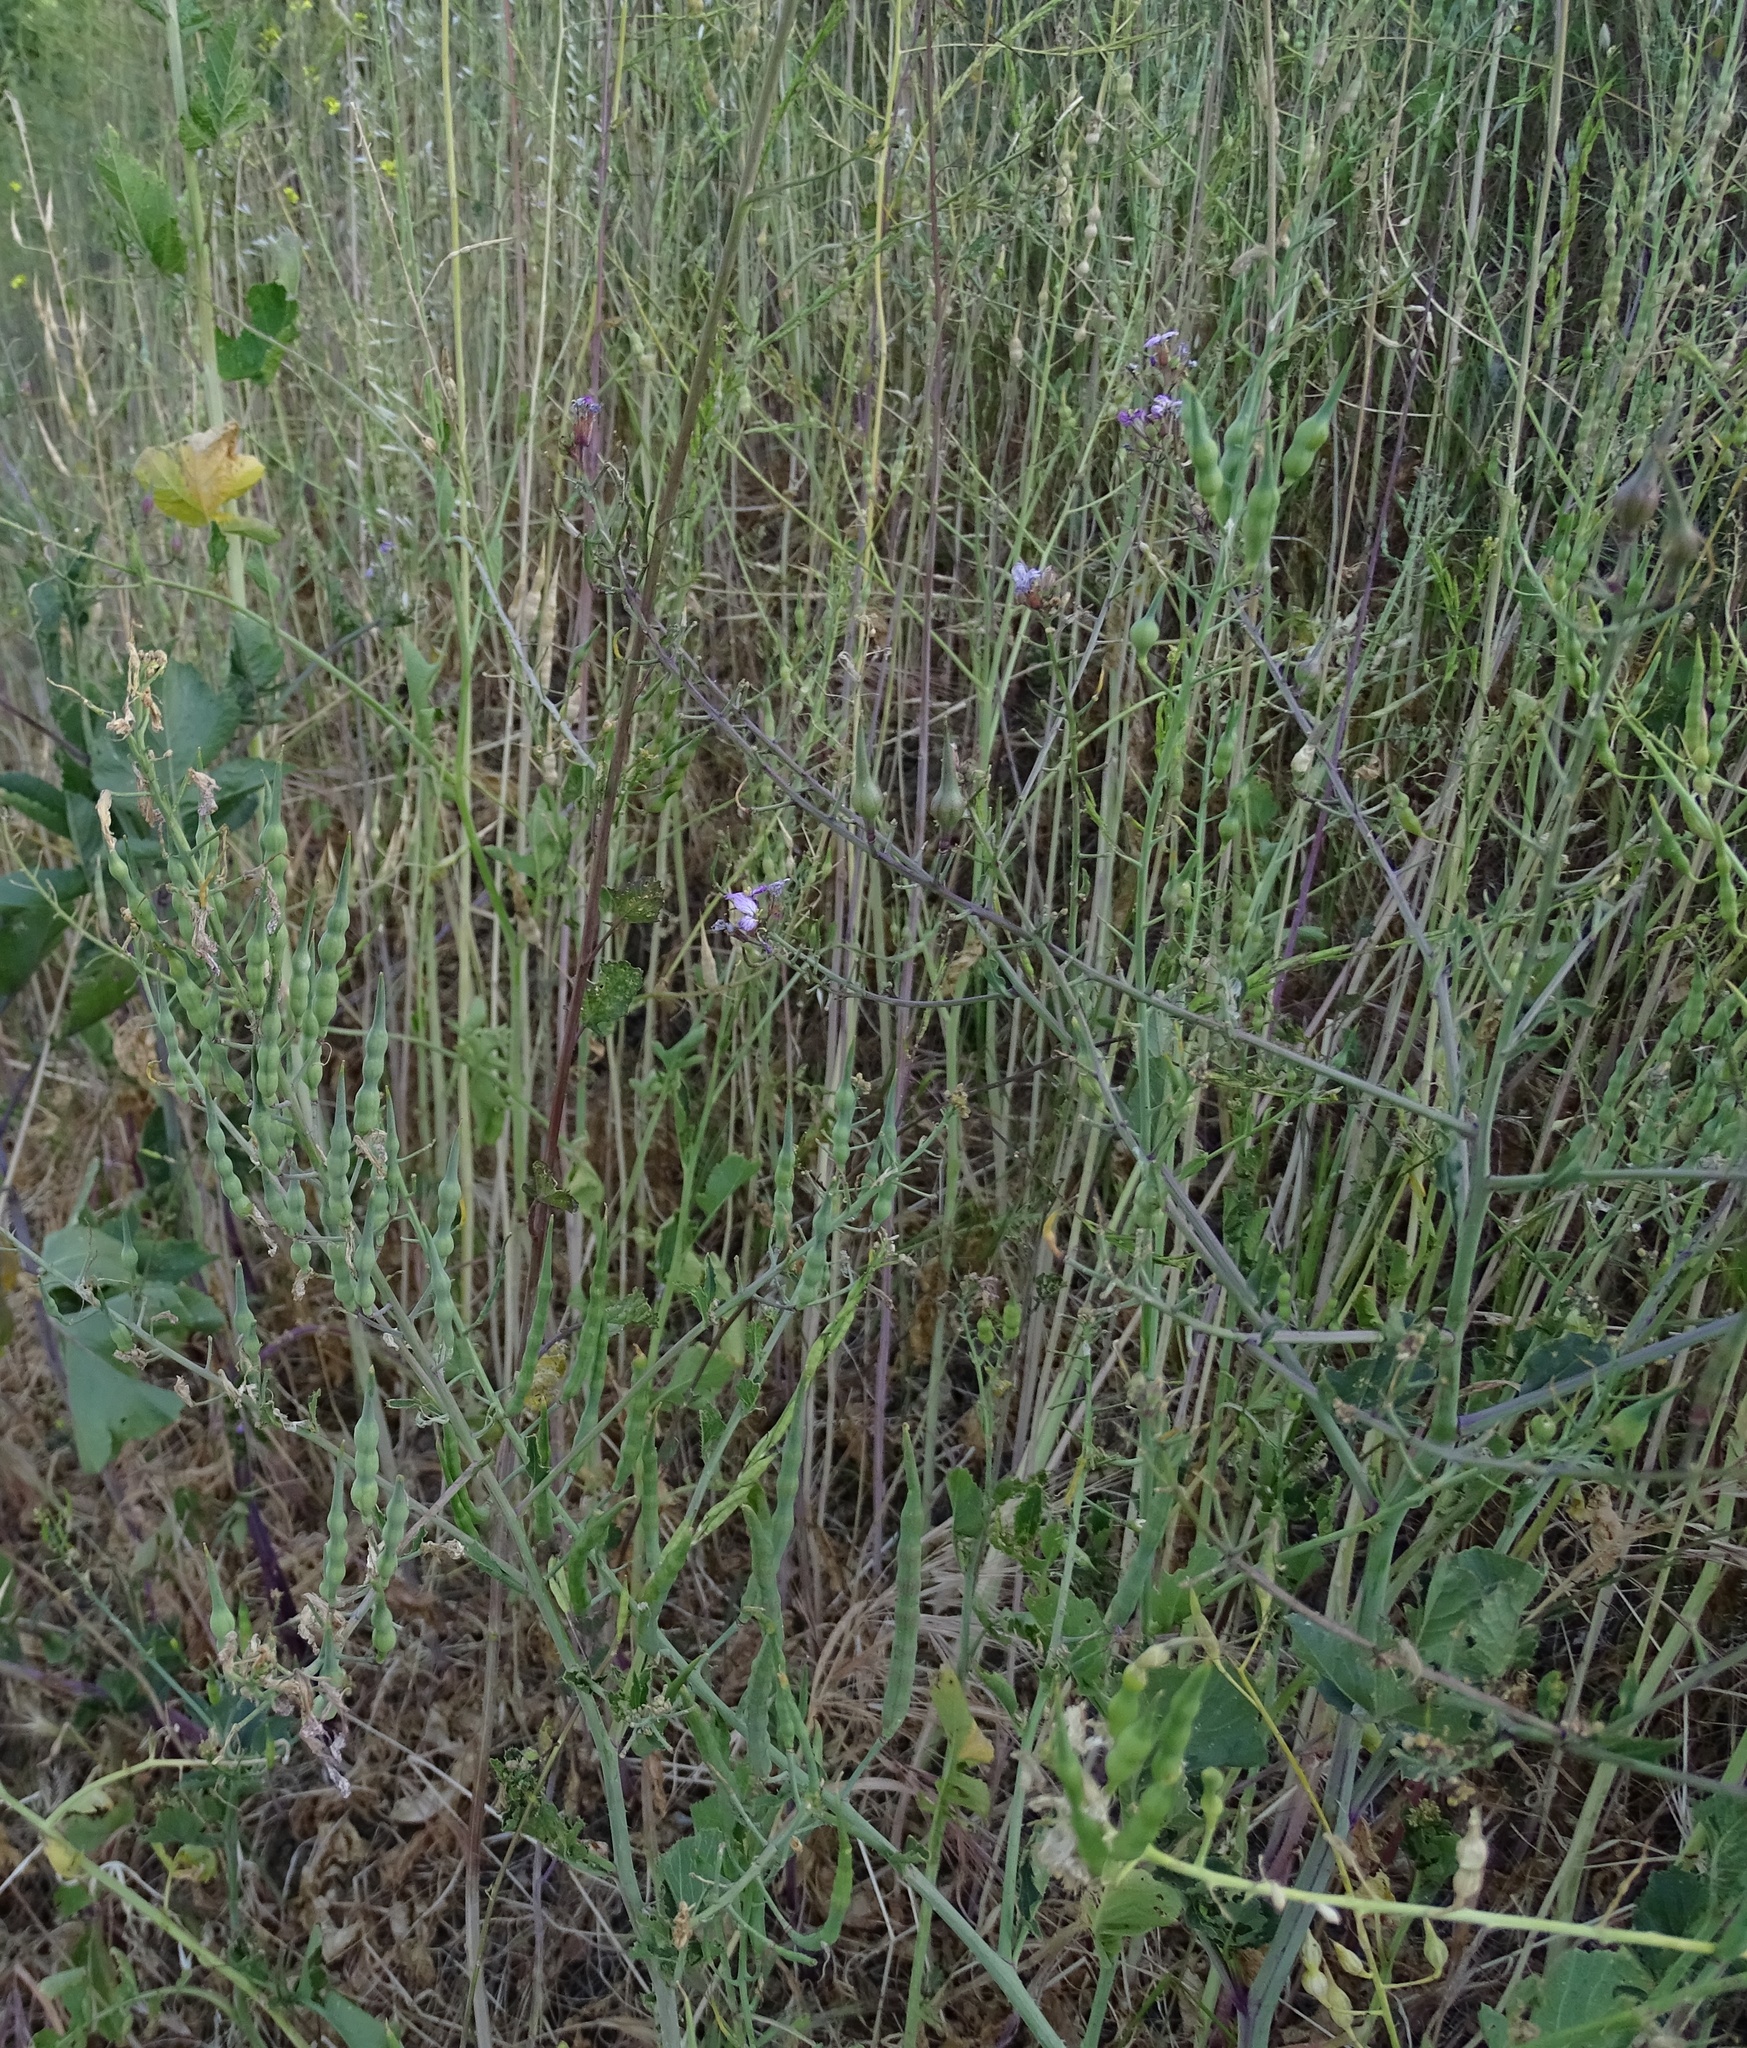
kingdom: Plantae
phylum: Tracheophyta
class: Magnoliopsida
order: Brassicales
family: Brassicaceae
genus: Raphanus
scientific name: Raphanus sativus
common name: Cultivated radish
